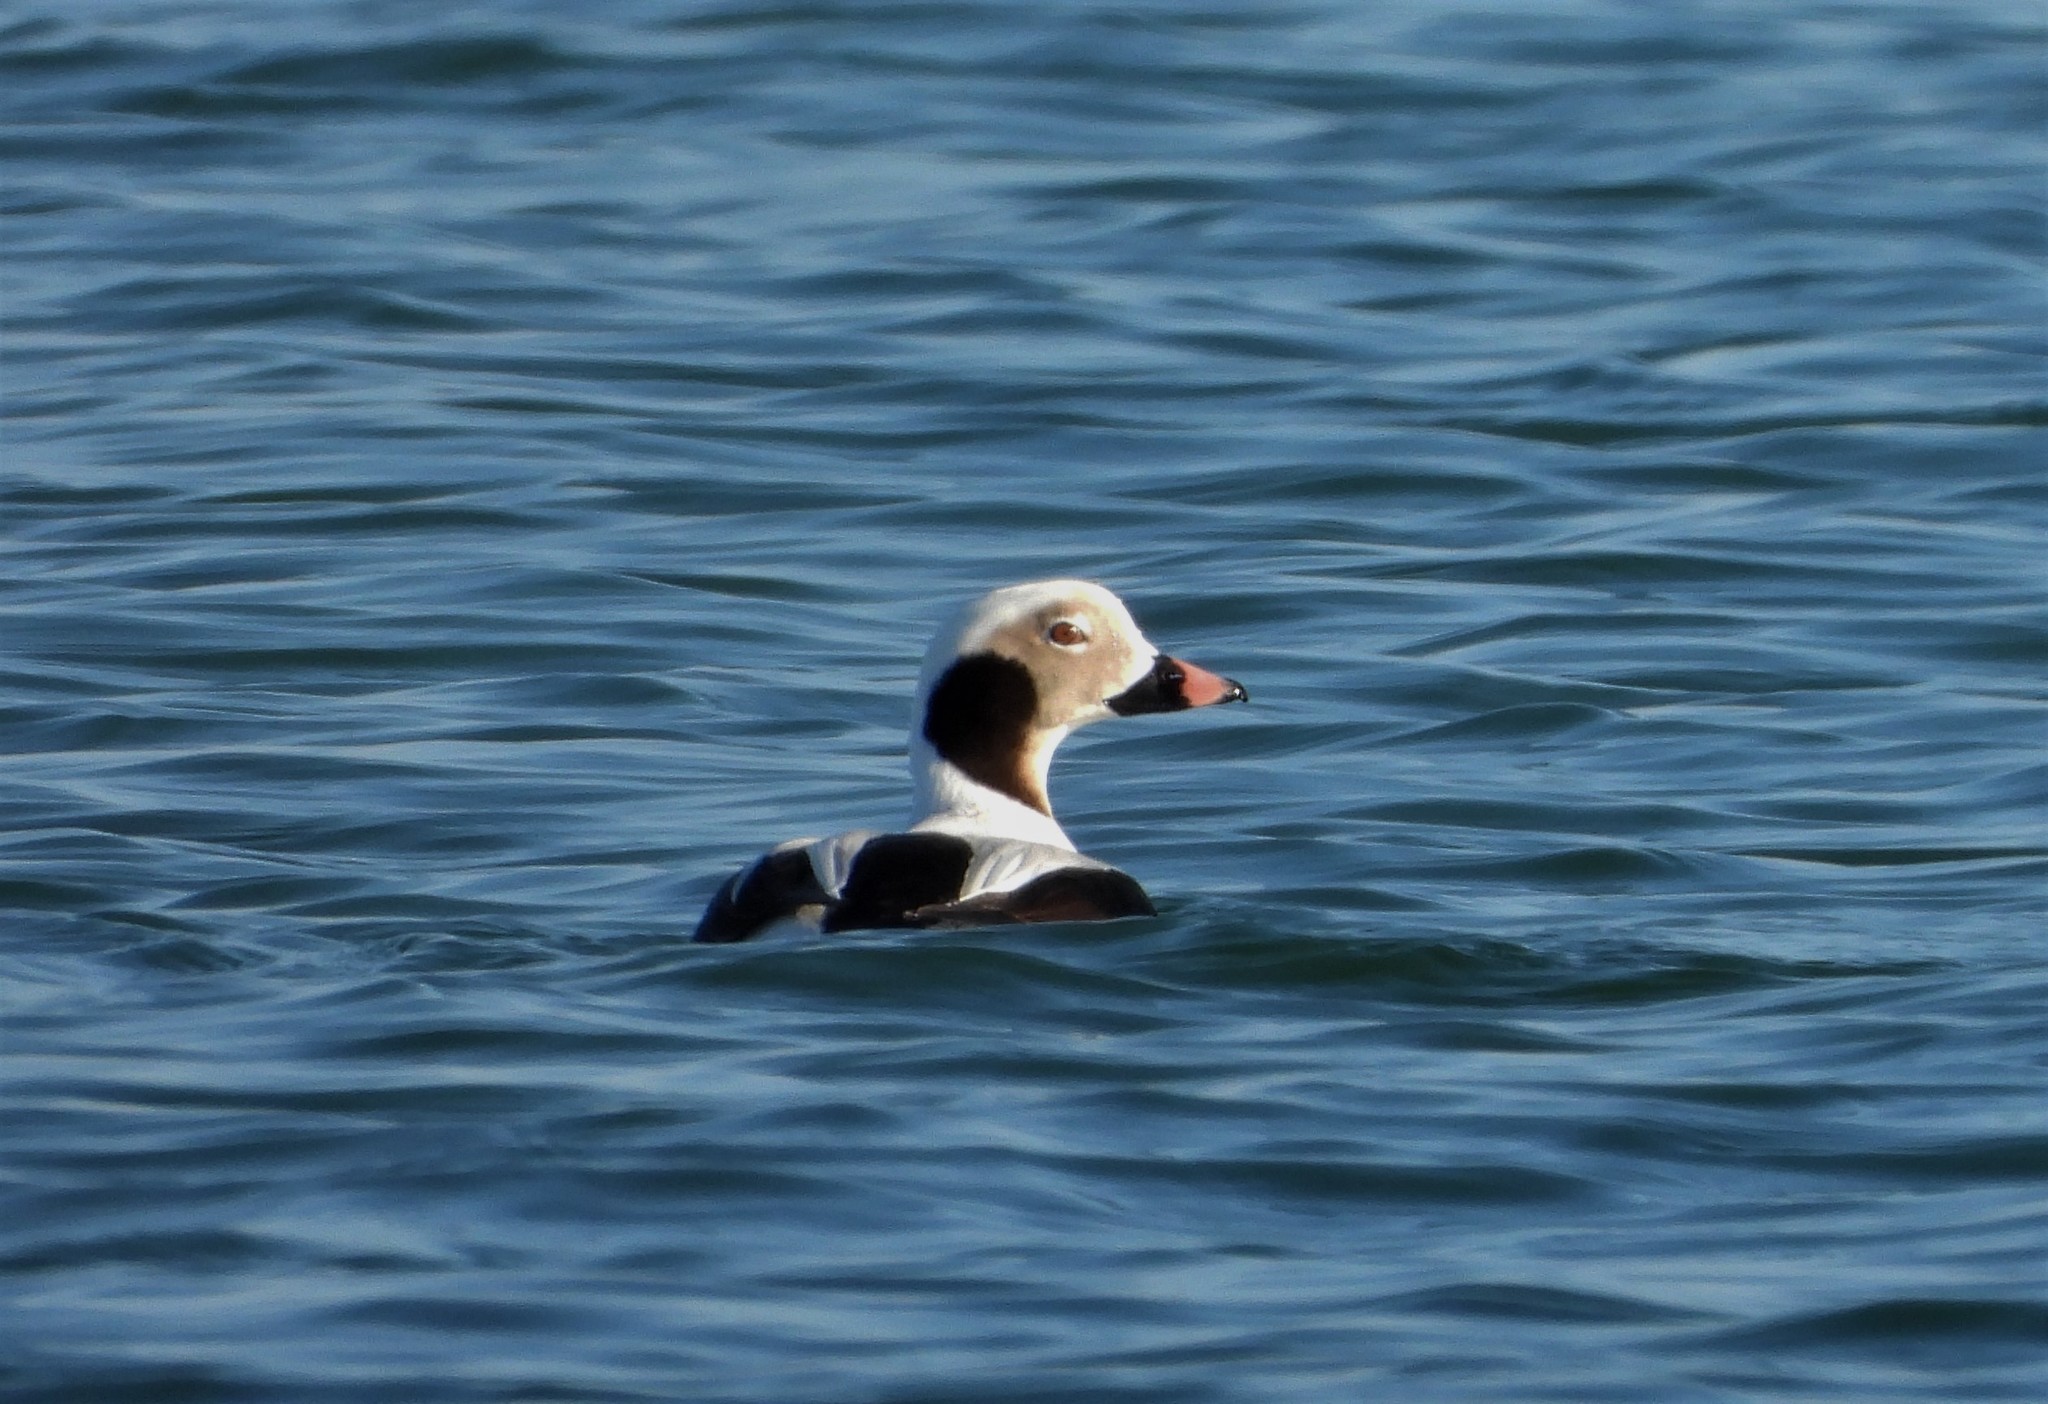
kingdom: Animalia
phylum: Chordata
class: Aves
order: Anseriformes
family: Anatidae
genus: Clangula
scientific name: Clangula hyemalis
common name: Long-tailed duck
